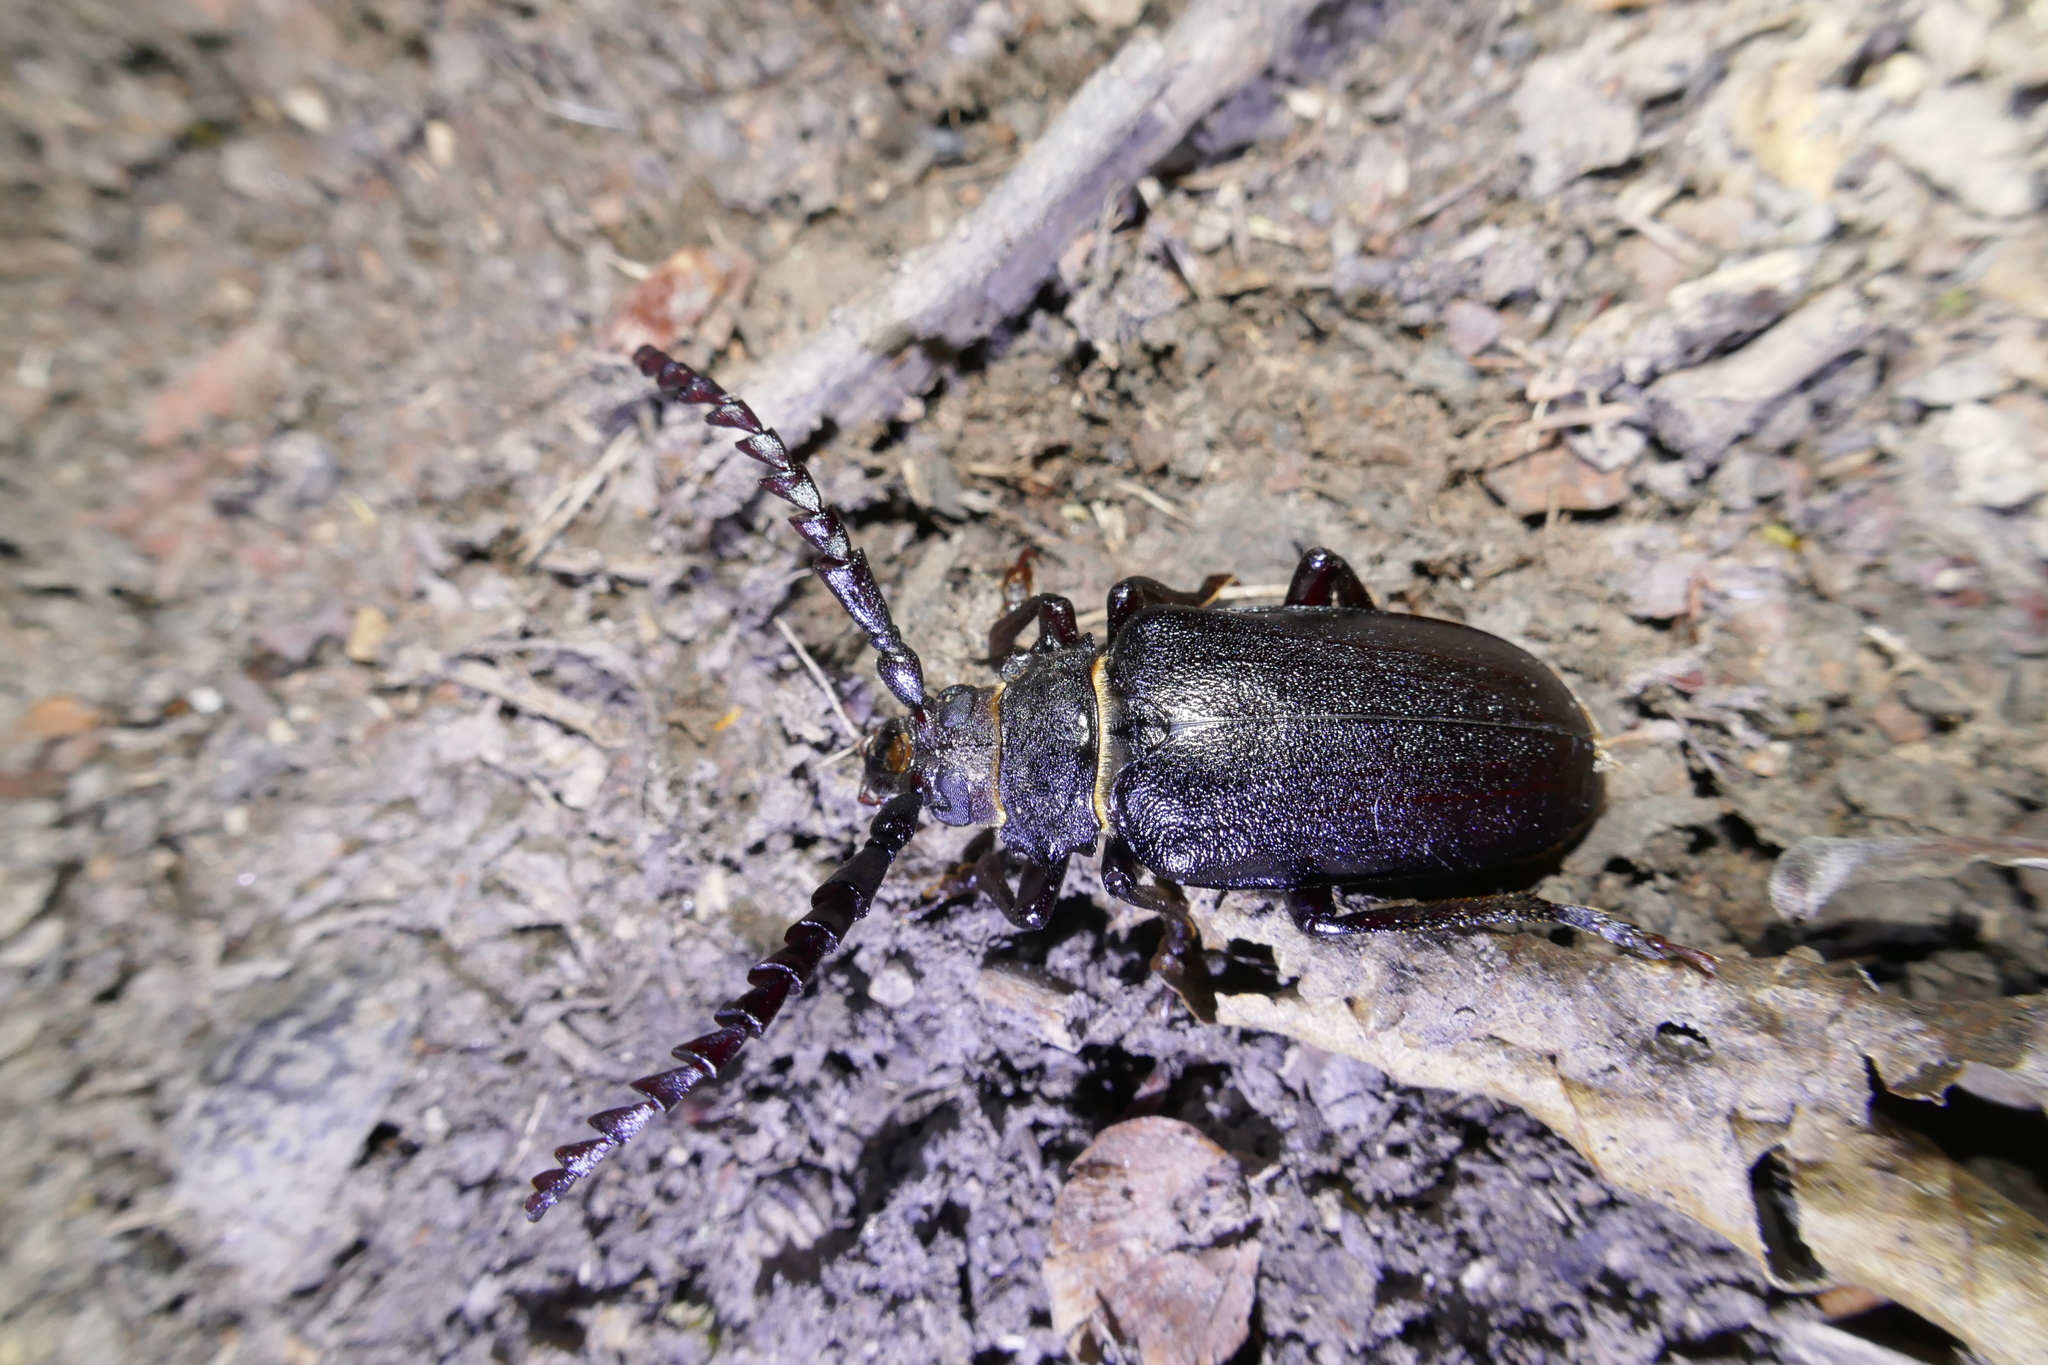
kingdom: Animalia
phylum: Arthropoda
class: Insecta
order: Coleoptera
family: Cerambycidae
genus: Prionus
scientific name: Prionus coriarius
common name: Tanner beetle
